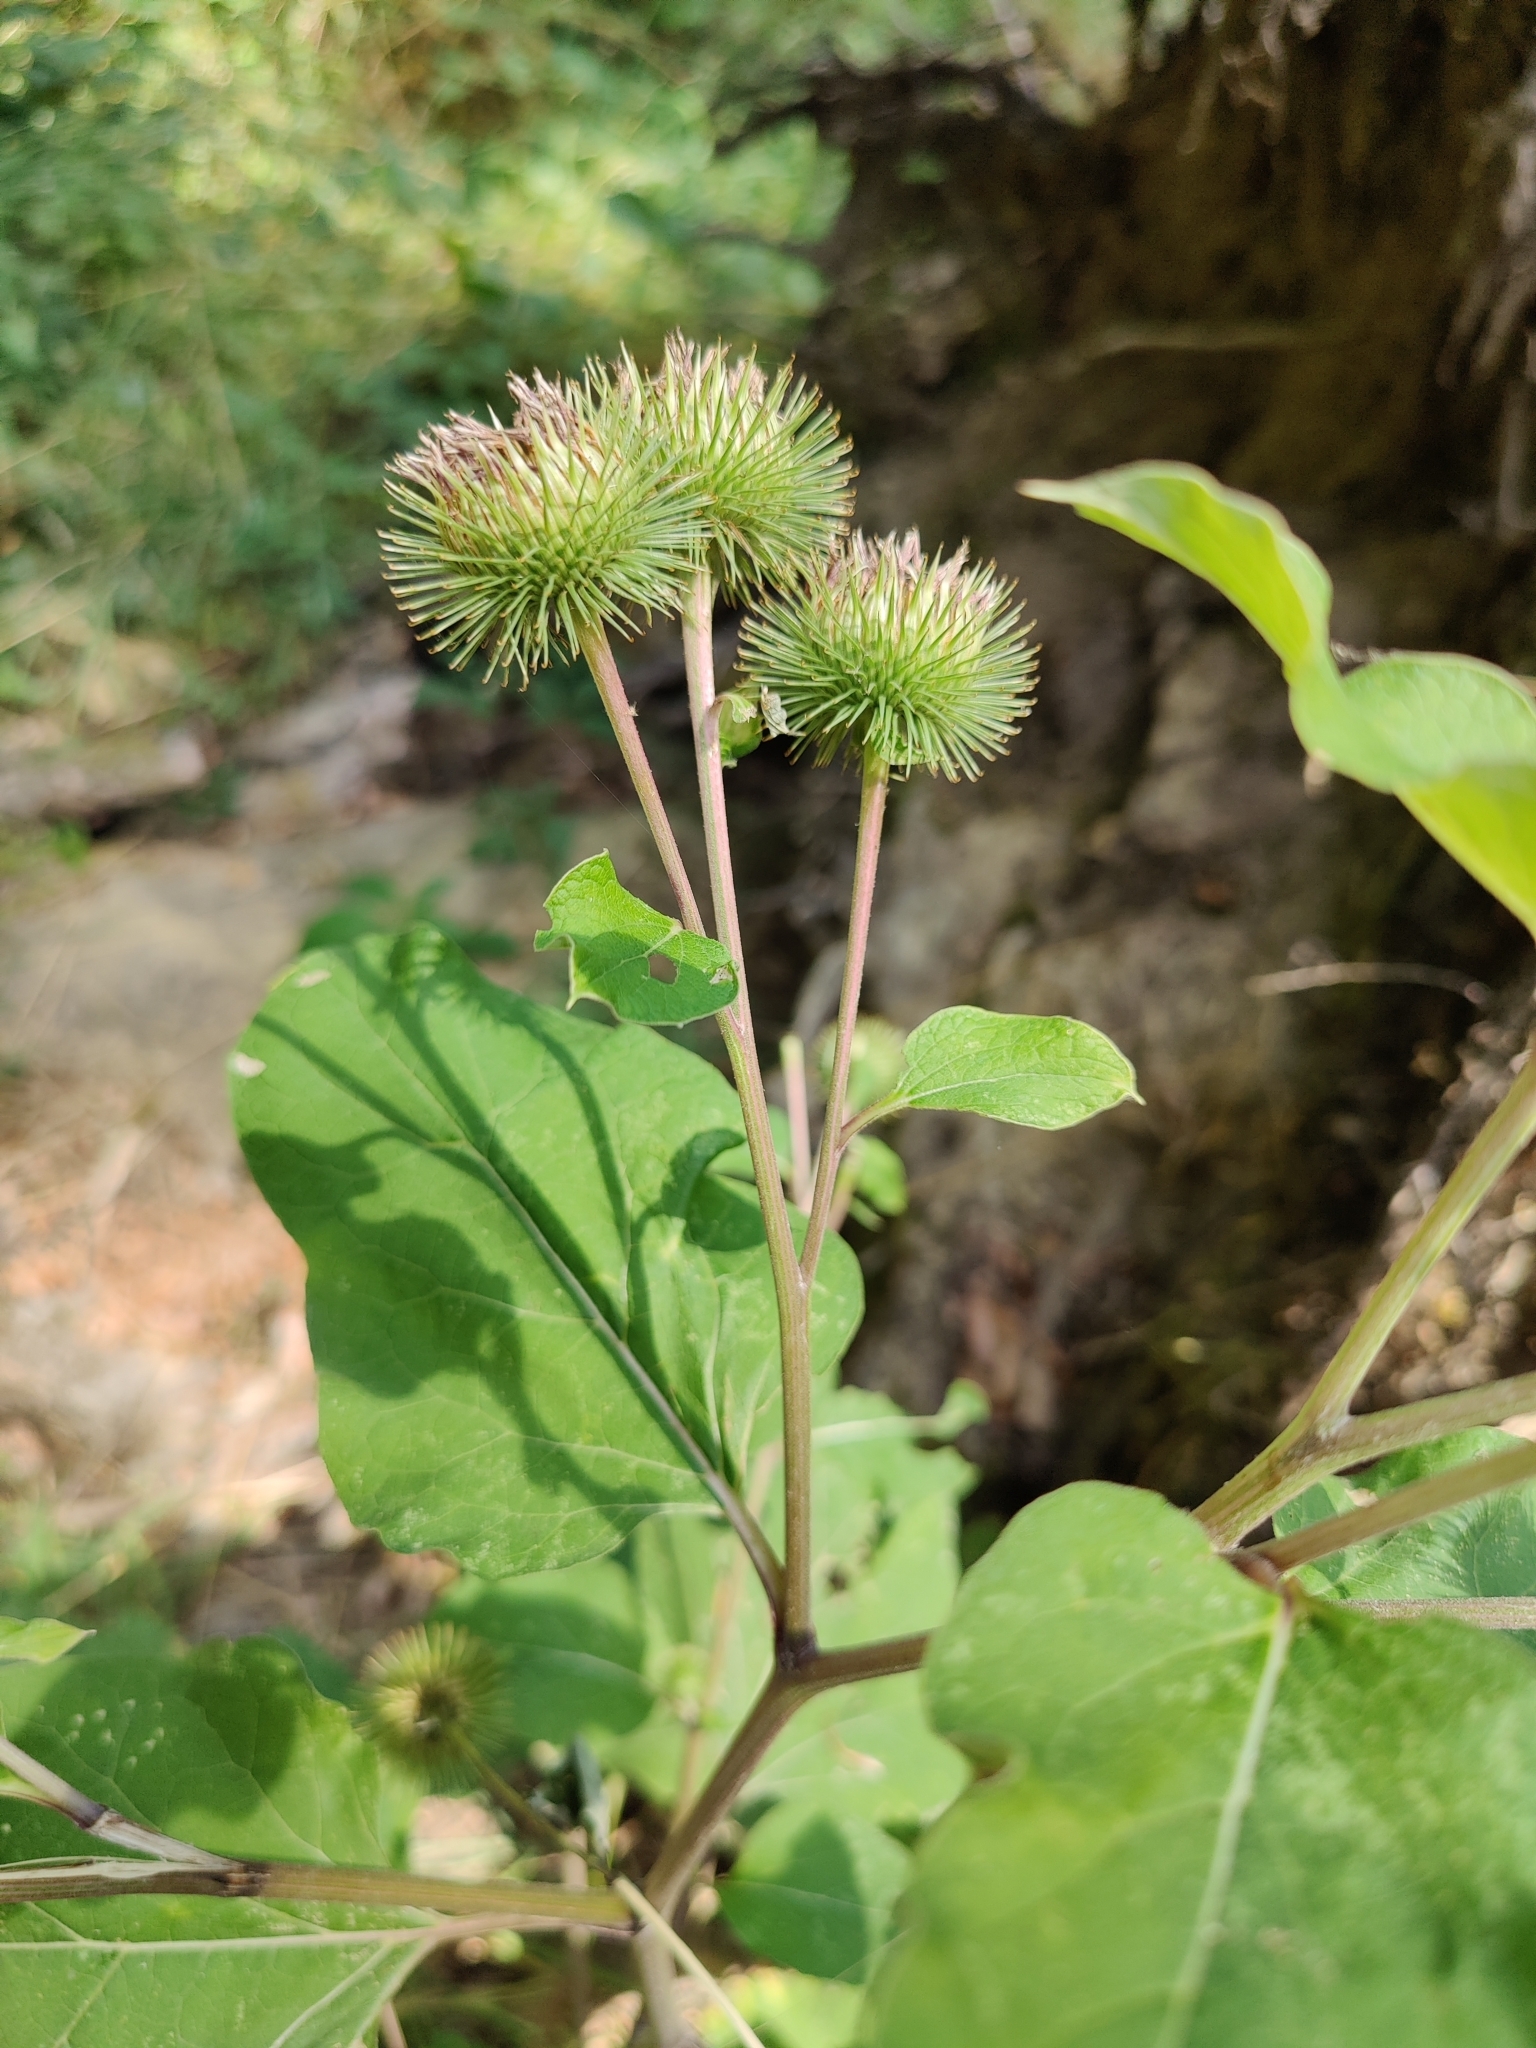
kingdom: Plantae
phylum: Tracheophyta
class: Magnoliopsida
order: Asterales
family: Asteraceae
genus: Arctium
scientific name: Arctium lappa
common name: Greater burdock
